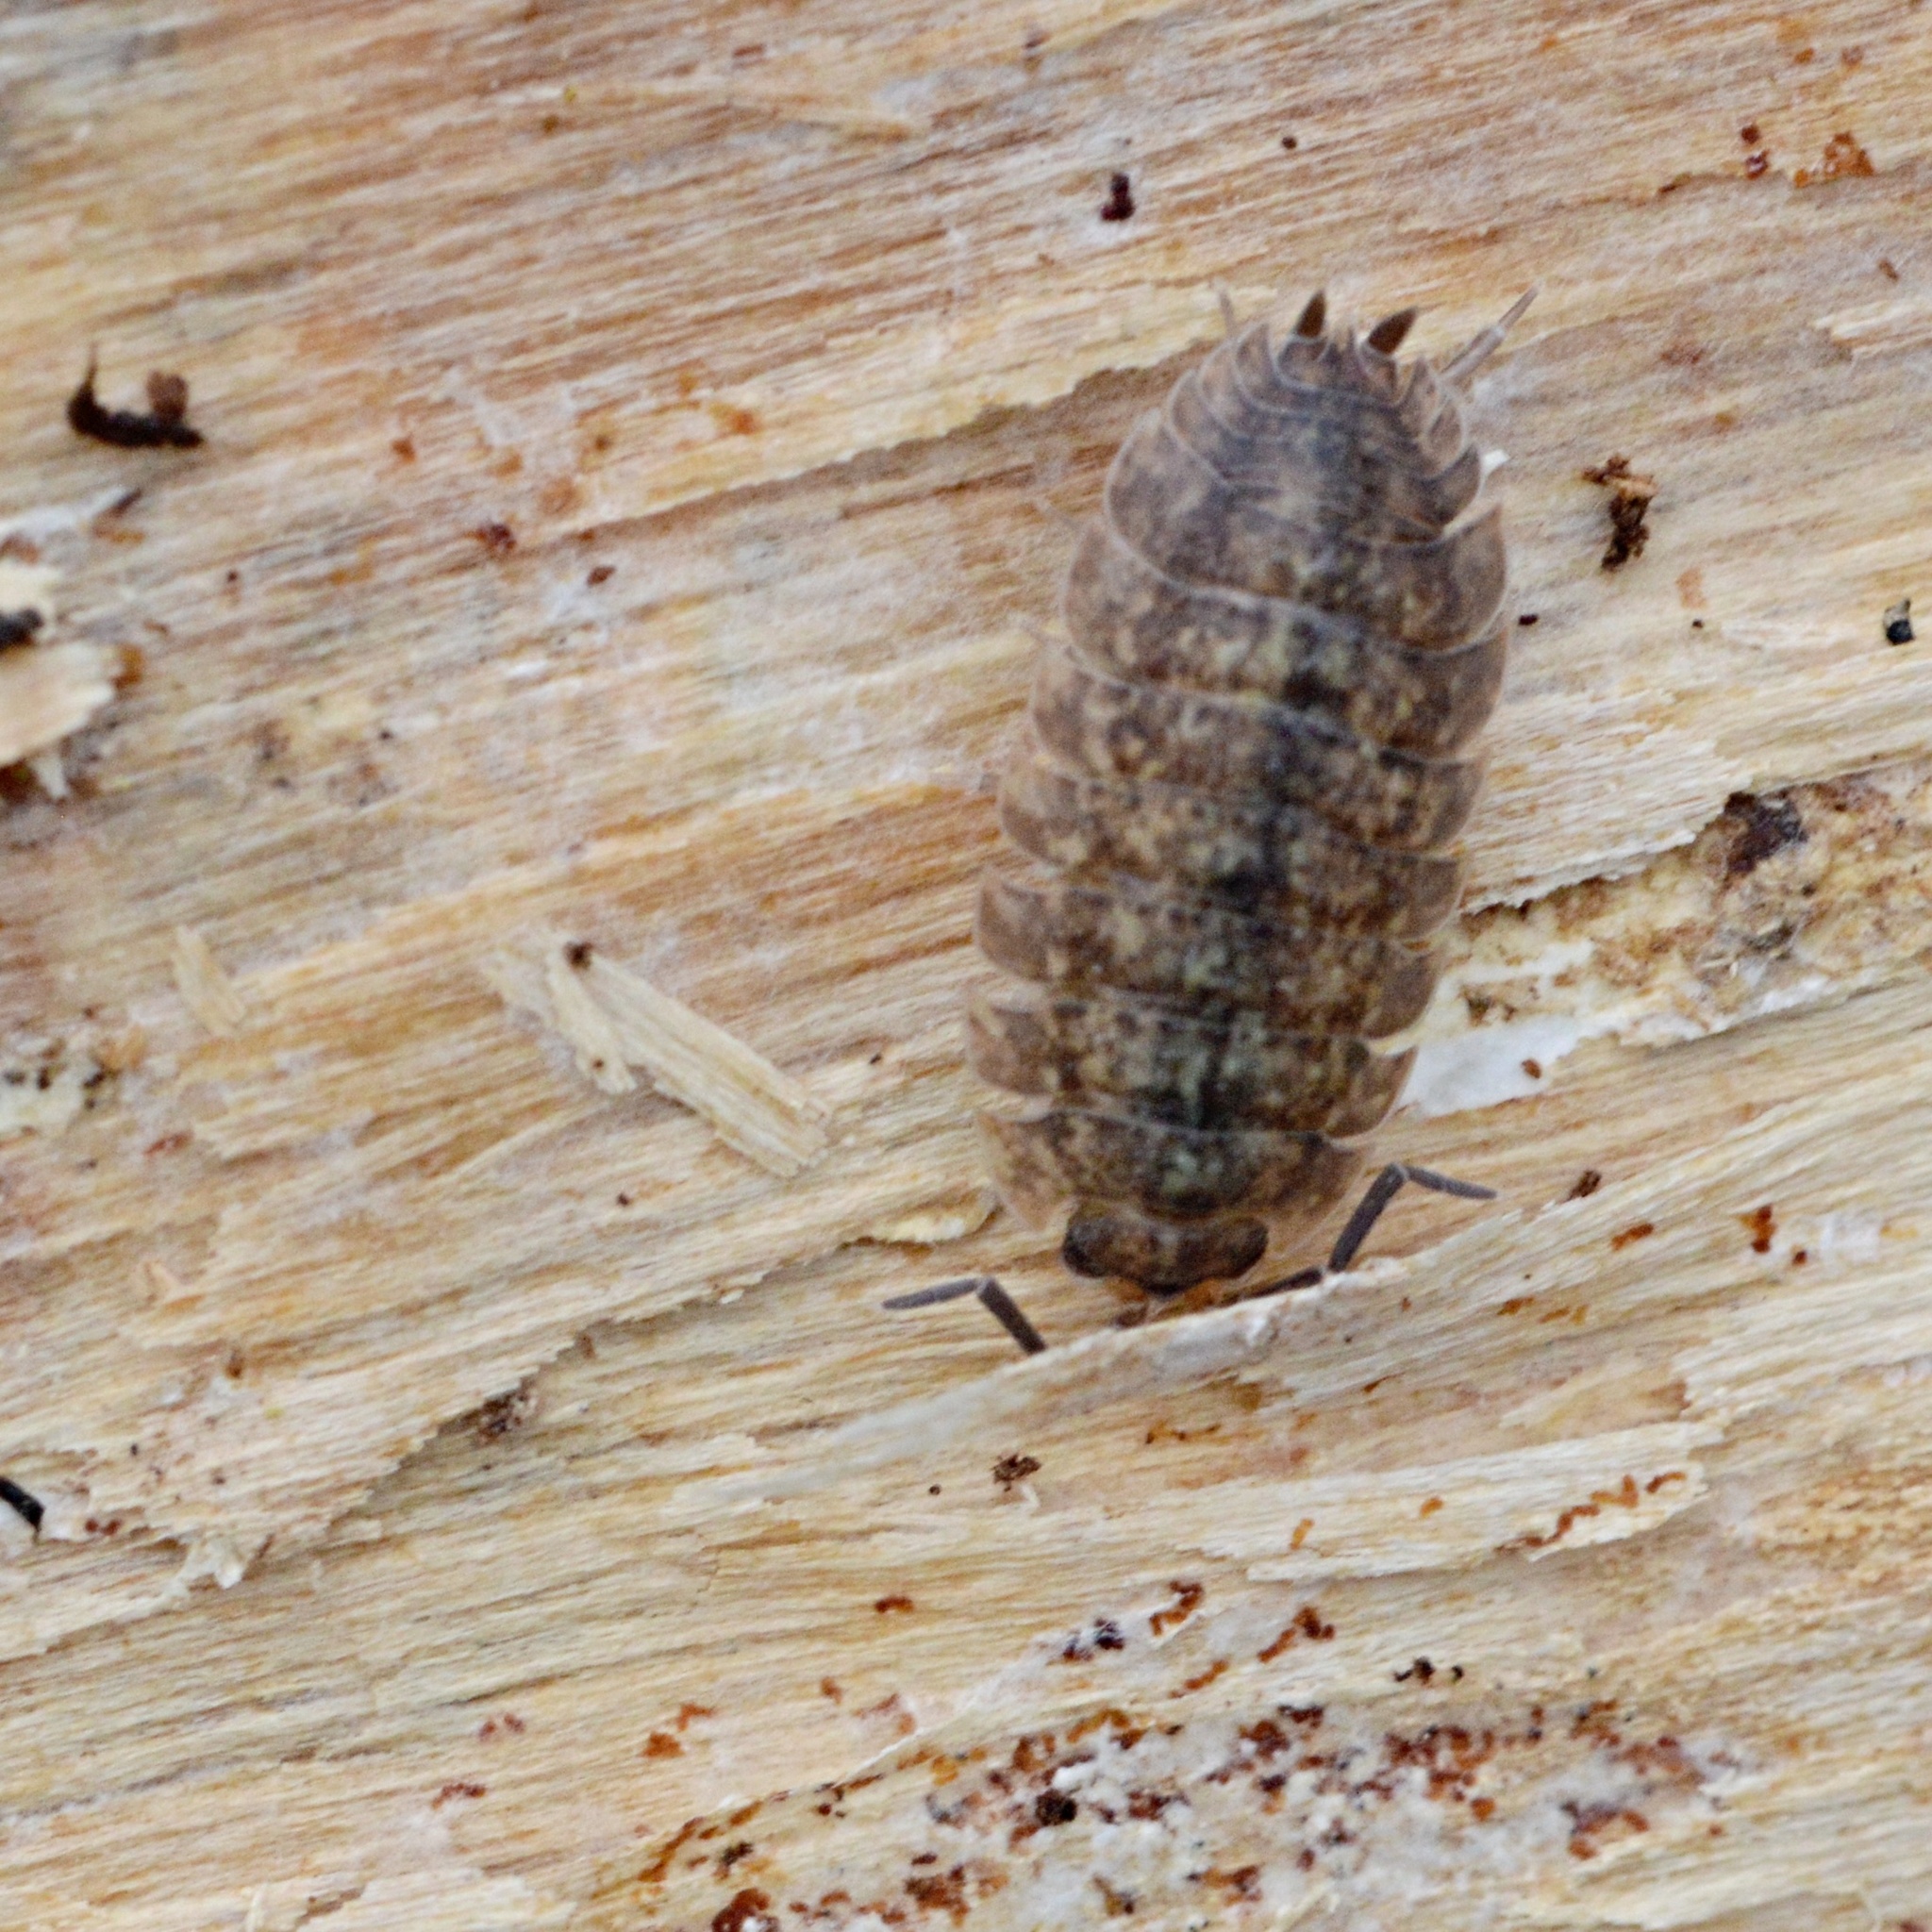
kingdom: Animalia
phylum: Arthropoda
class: Malacostraca
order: Isopoda
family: Porcellionidae
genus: Porcellio
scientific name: Porcellio scaber
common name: Common rough woodlouse
